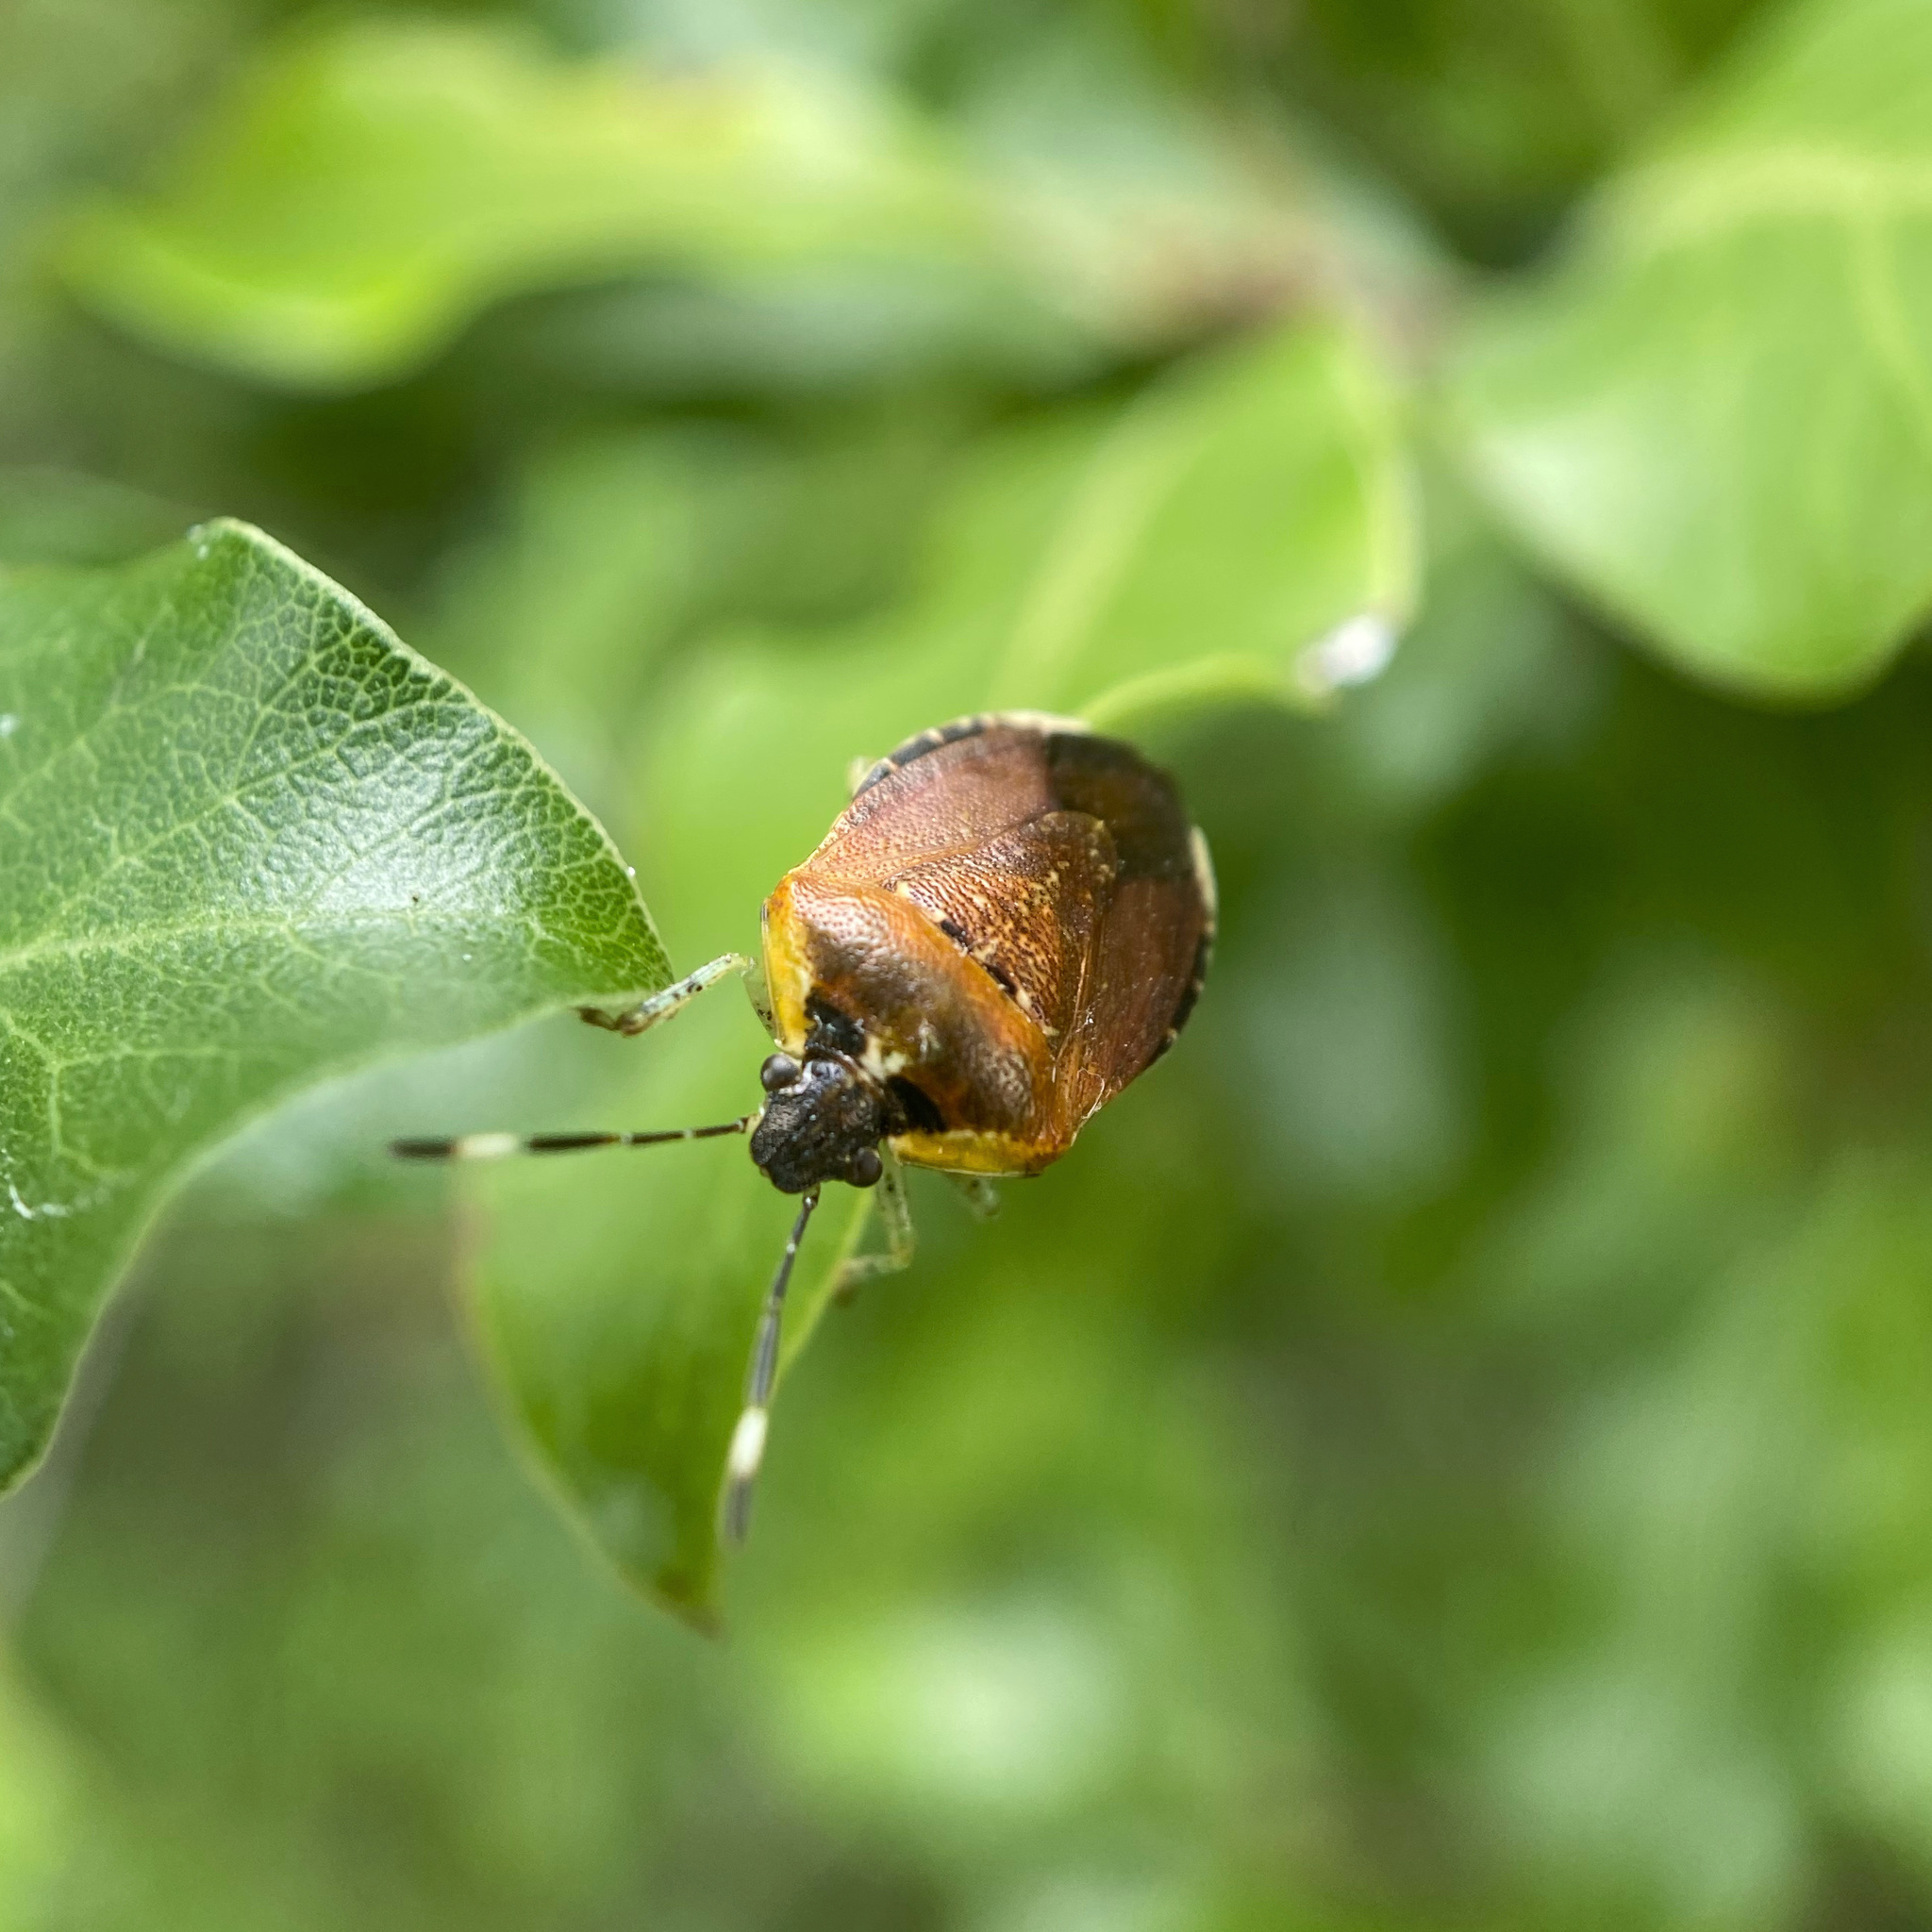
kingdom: Animalia
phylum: Arthropoda
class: Insecta
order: Hemiptera
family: Pentatomidae
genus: Monteithiella
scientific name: Monteithiella
